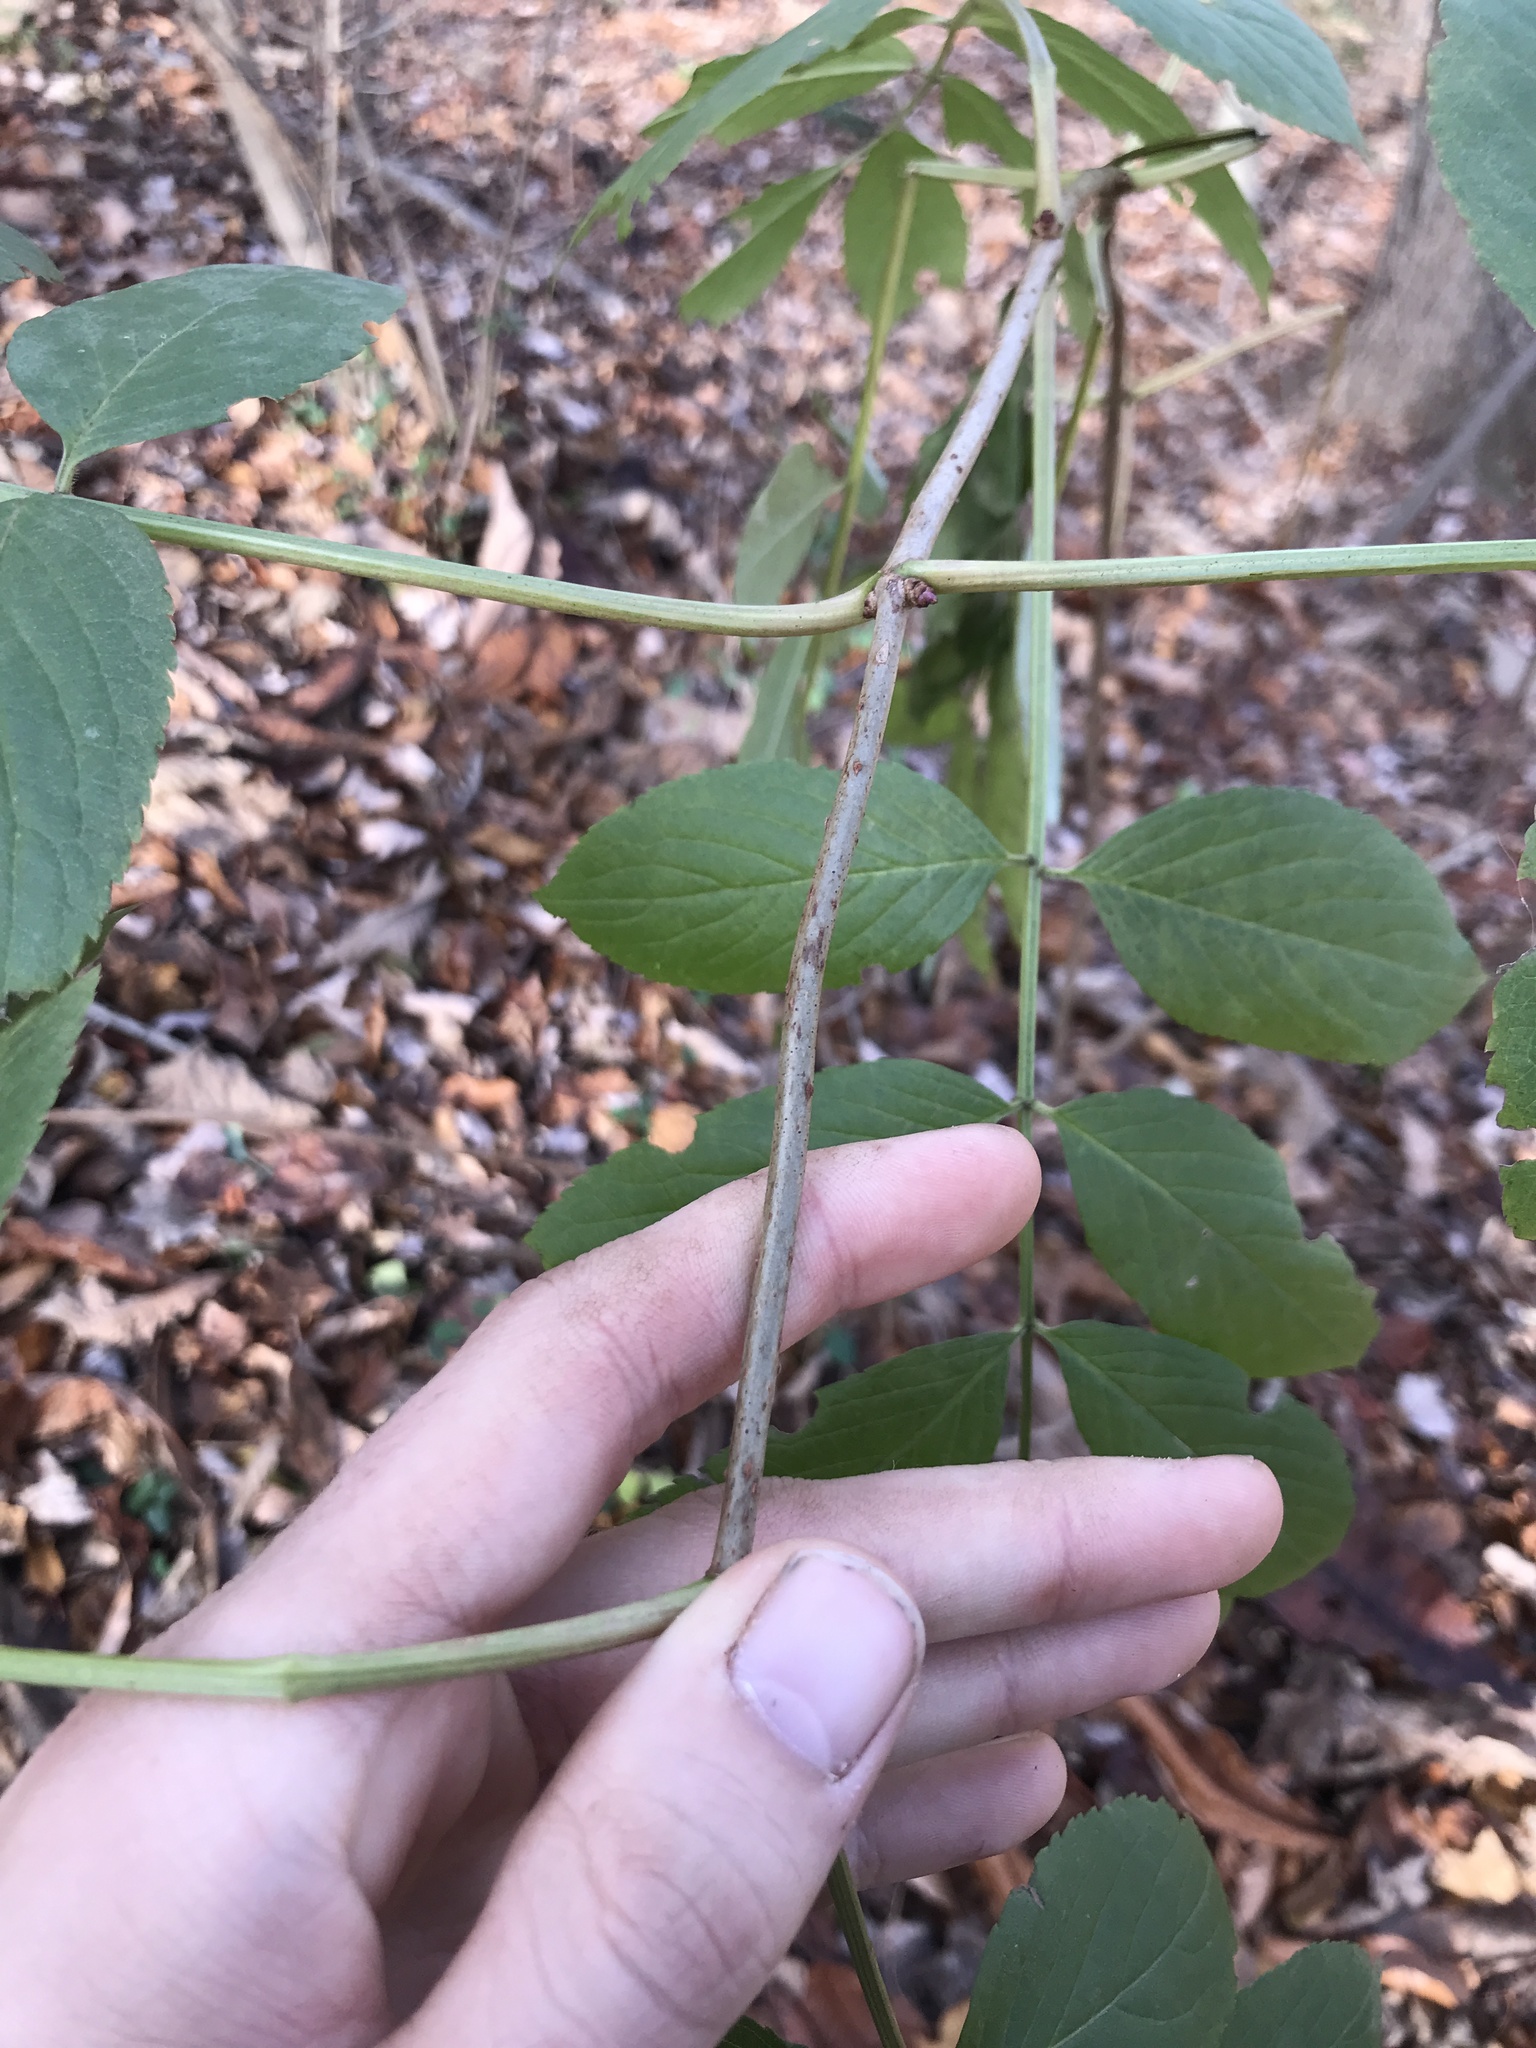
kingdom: Plantae
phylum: Tracheophyta
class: Magnoliopsida
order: Dipsacales
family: Viburnaceae
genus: Sambucus
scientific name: Sambucus canadensis
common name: American elder
